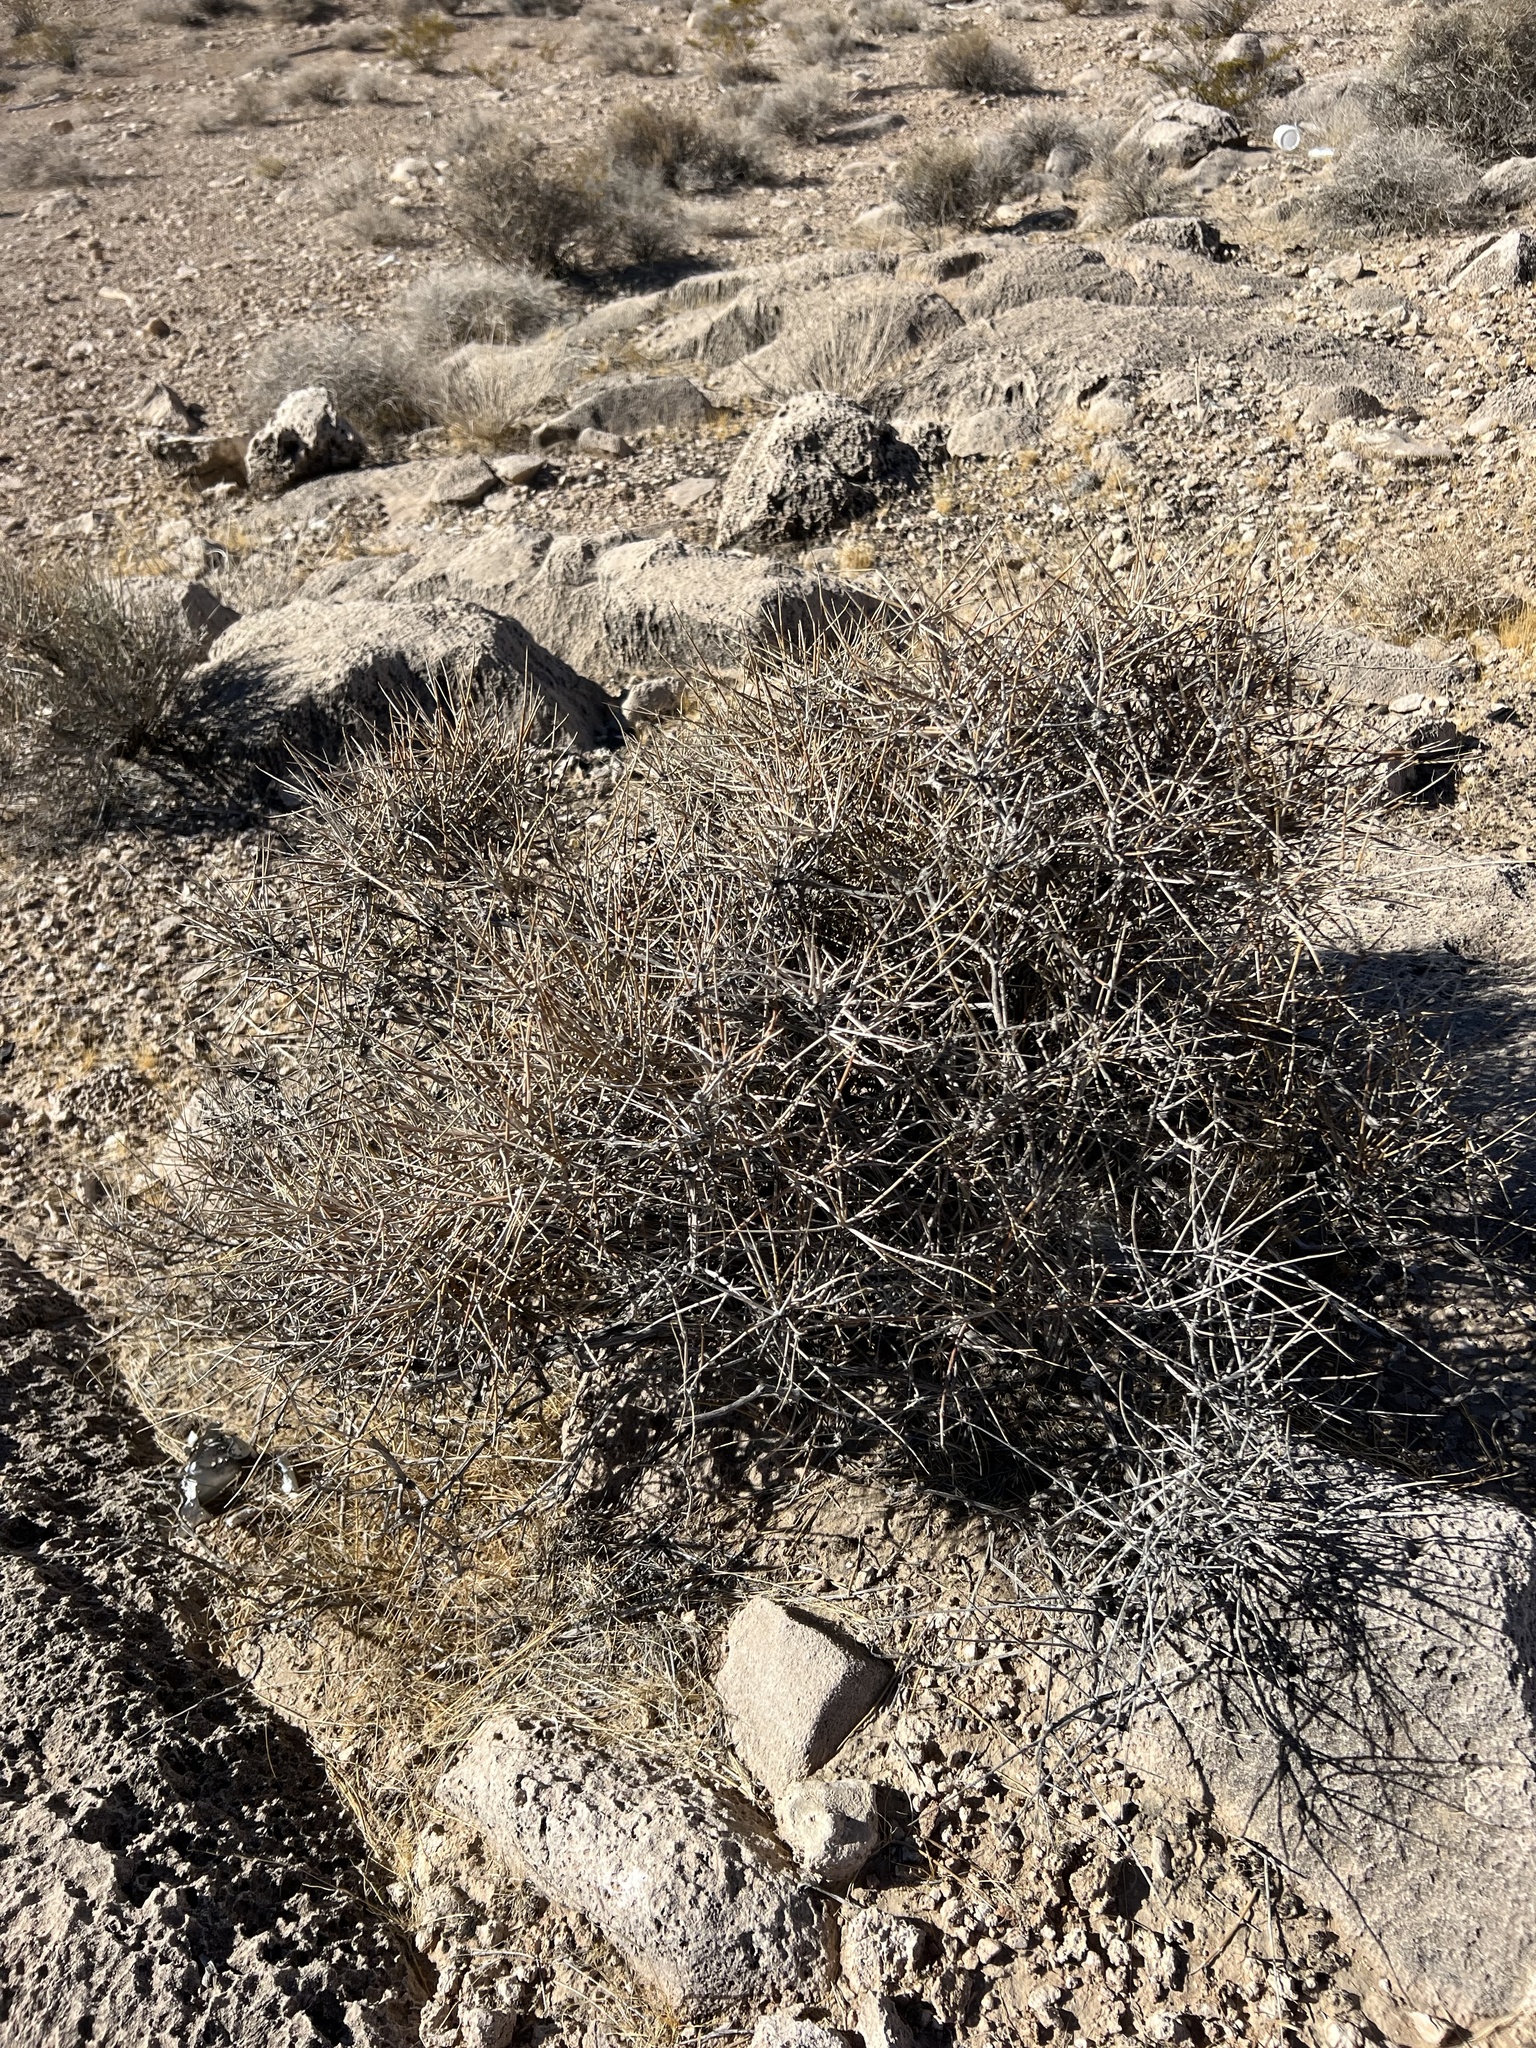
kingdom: Plantae
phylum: Tracheophyta
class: Gnetopsida
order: Ephedrales
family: Ephedraceae
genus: Ephedra
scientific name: Ephedra nevadensis
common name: Gray ephedra
